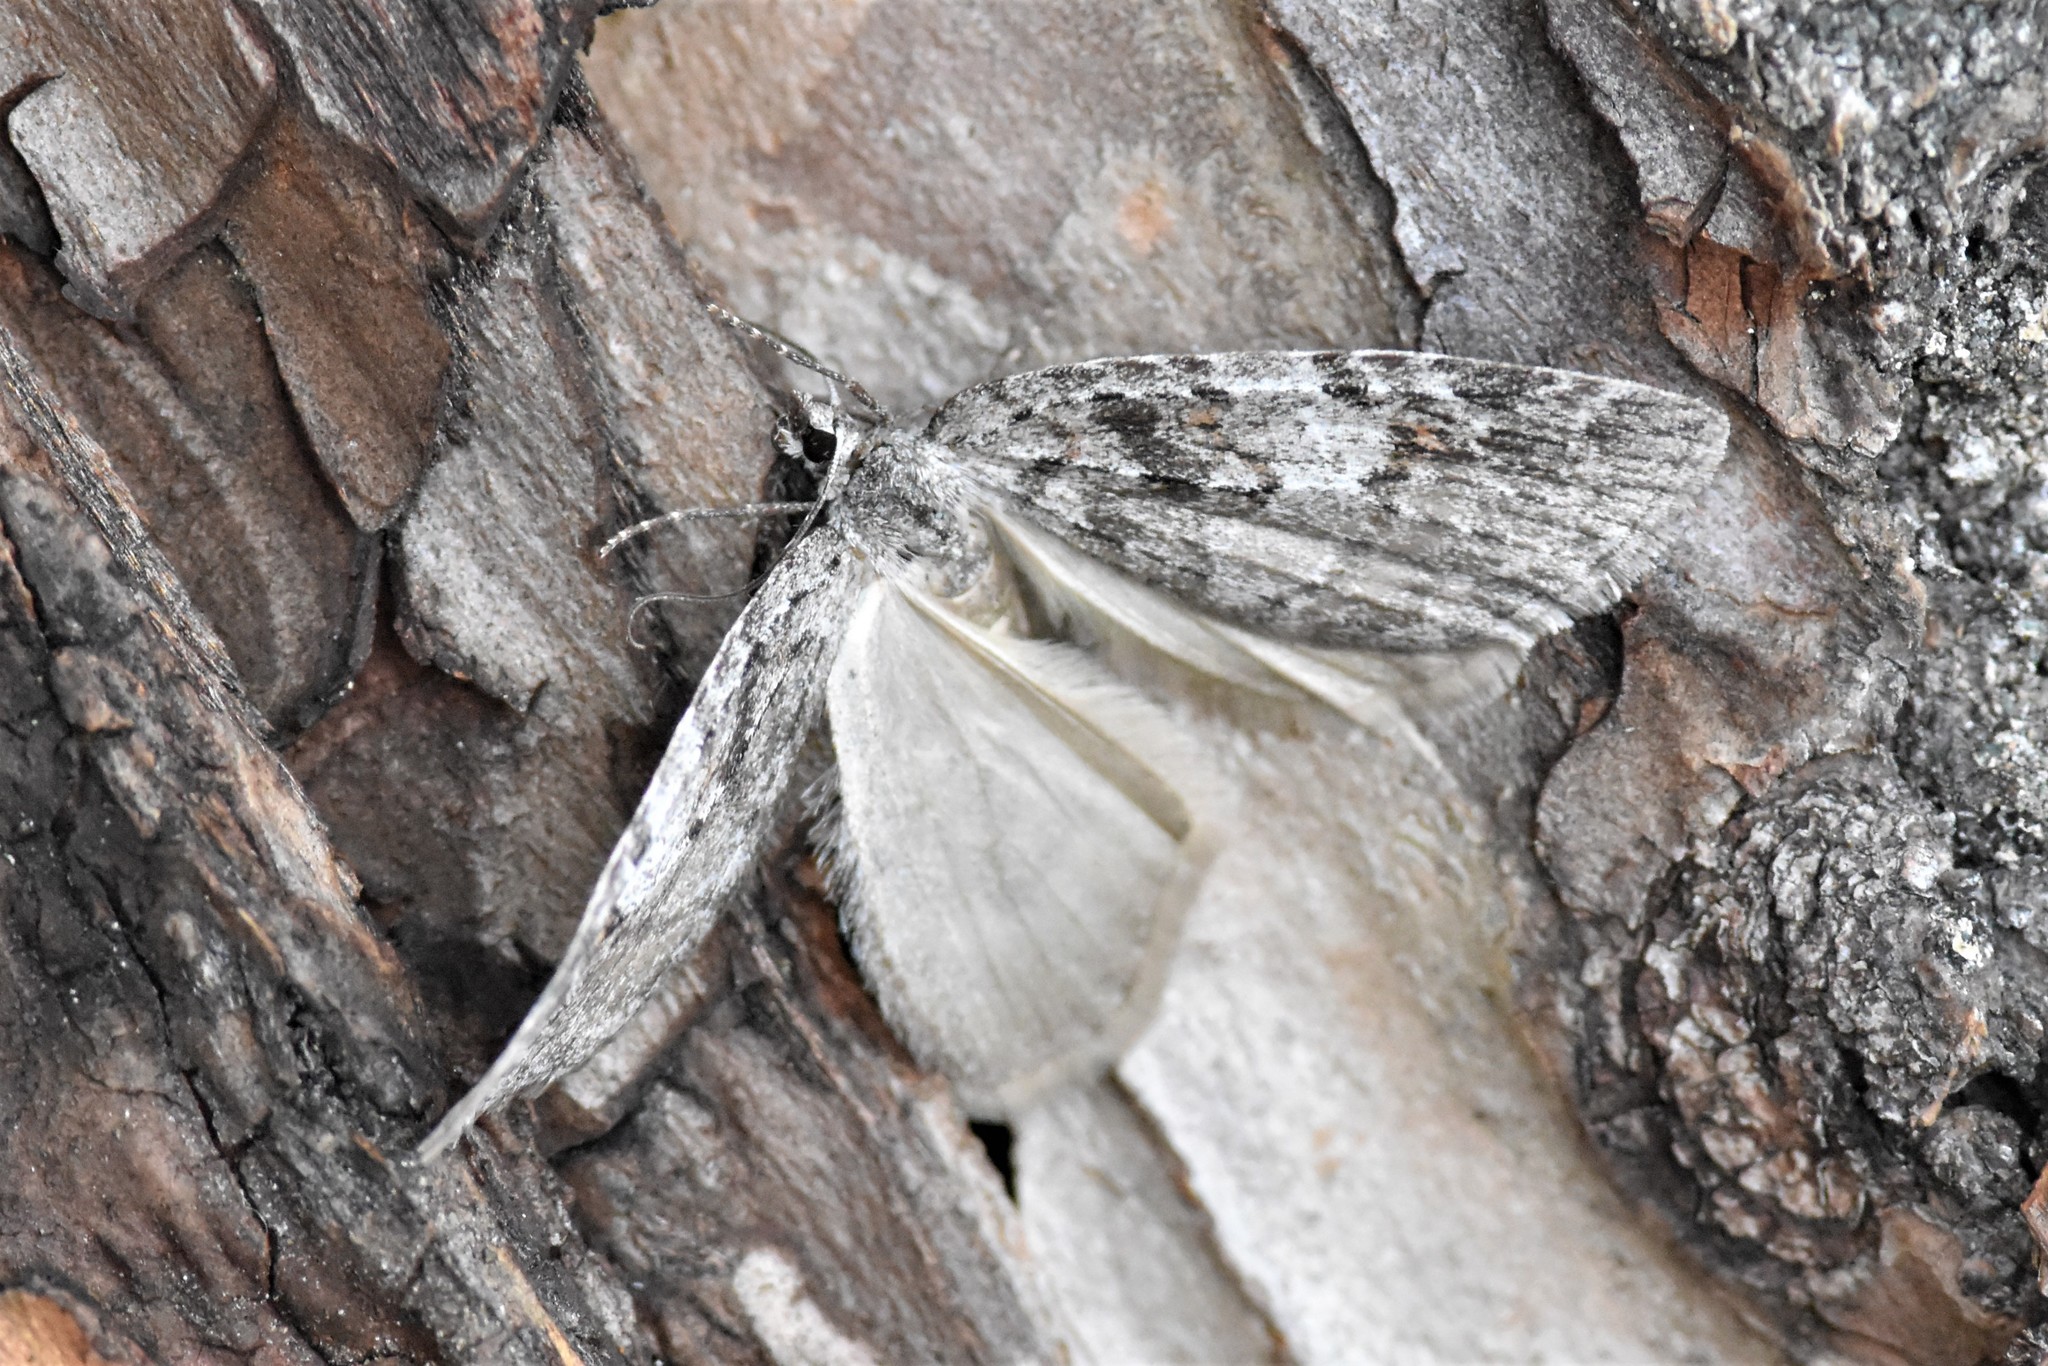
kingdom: Animalia
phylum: Arthropoda
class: Insecta
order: Lepidoptera
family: Geometridae
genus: Hydriomena
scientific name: Hydriomena manzanita
